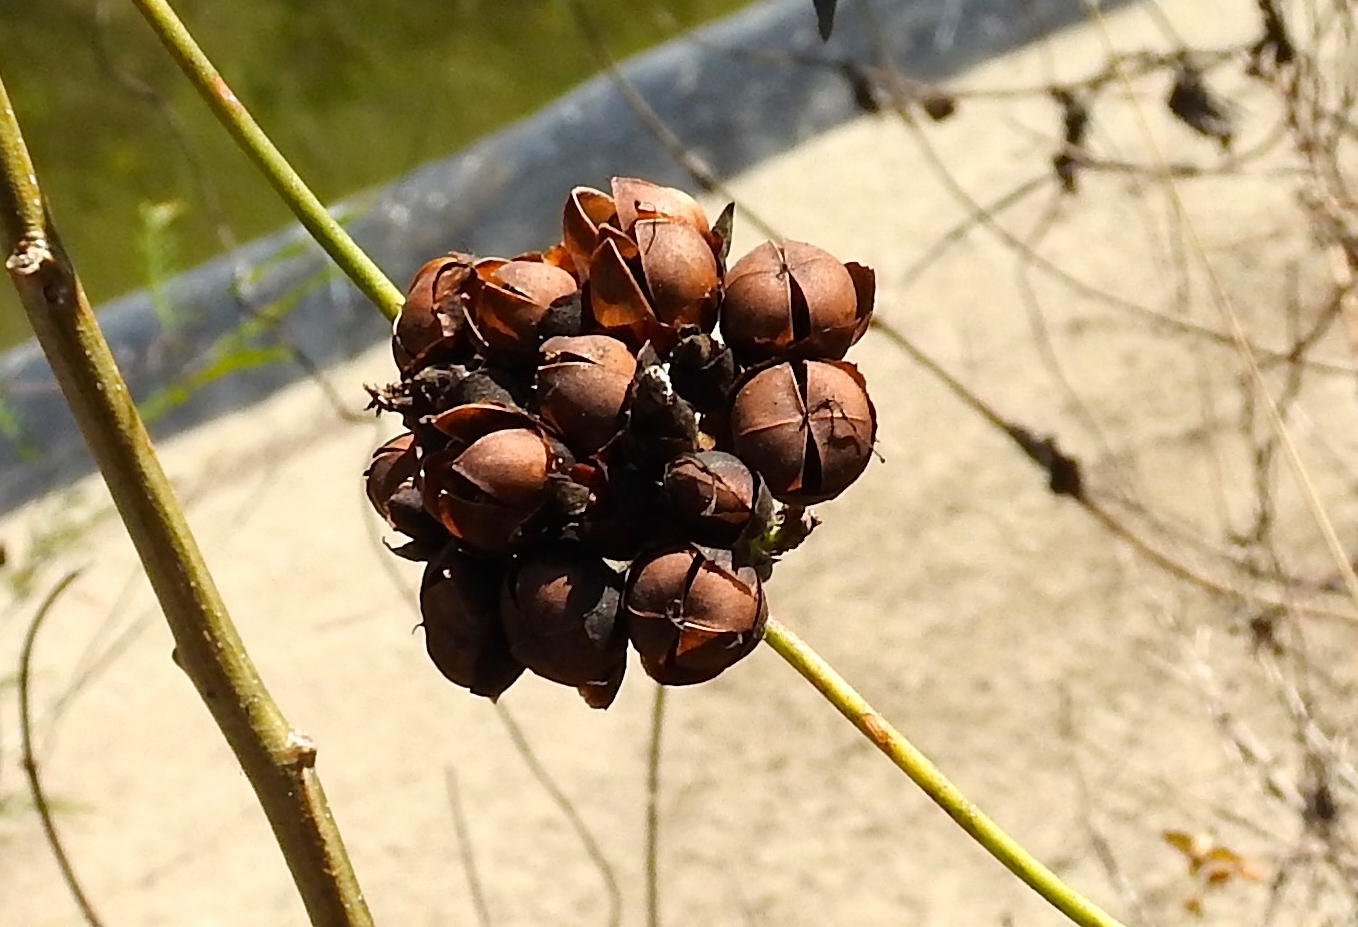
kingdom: Plantae
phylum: Tracheophyta
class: Magnoliopsida
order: Solanales
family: Convolvulaceae
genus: Camonea
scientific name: Camonea umbellata
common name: Hogvine
